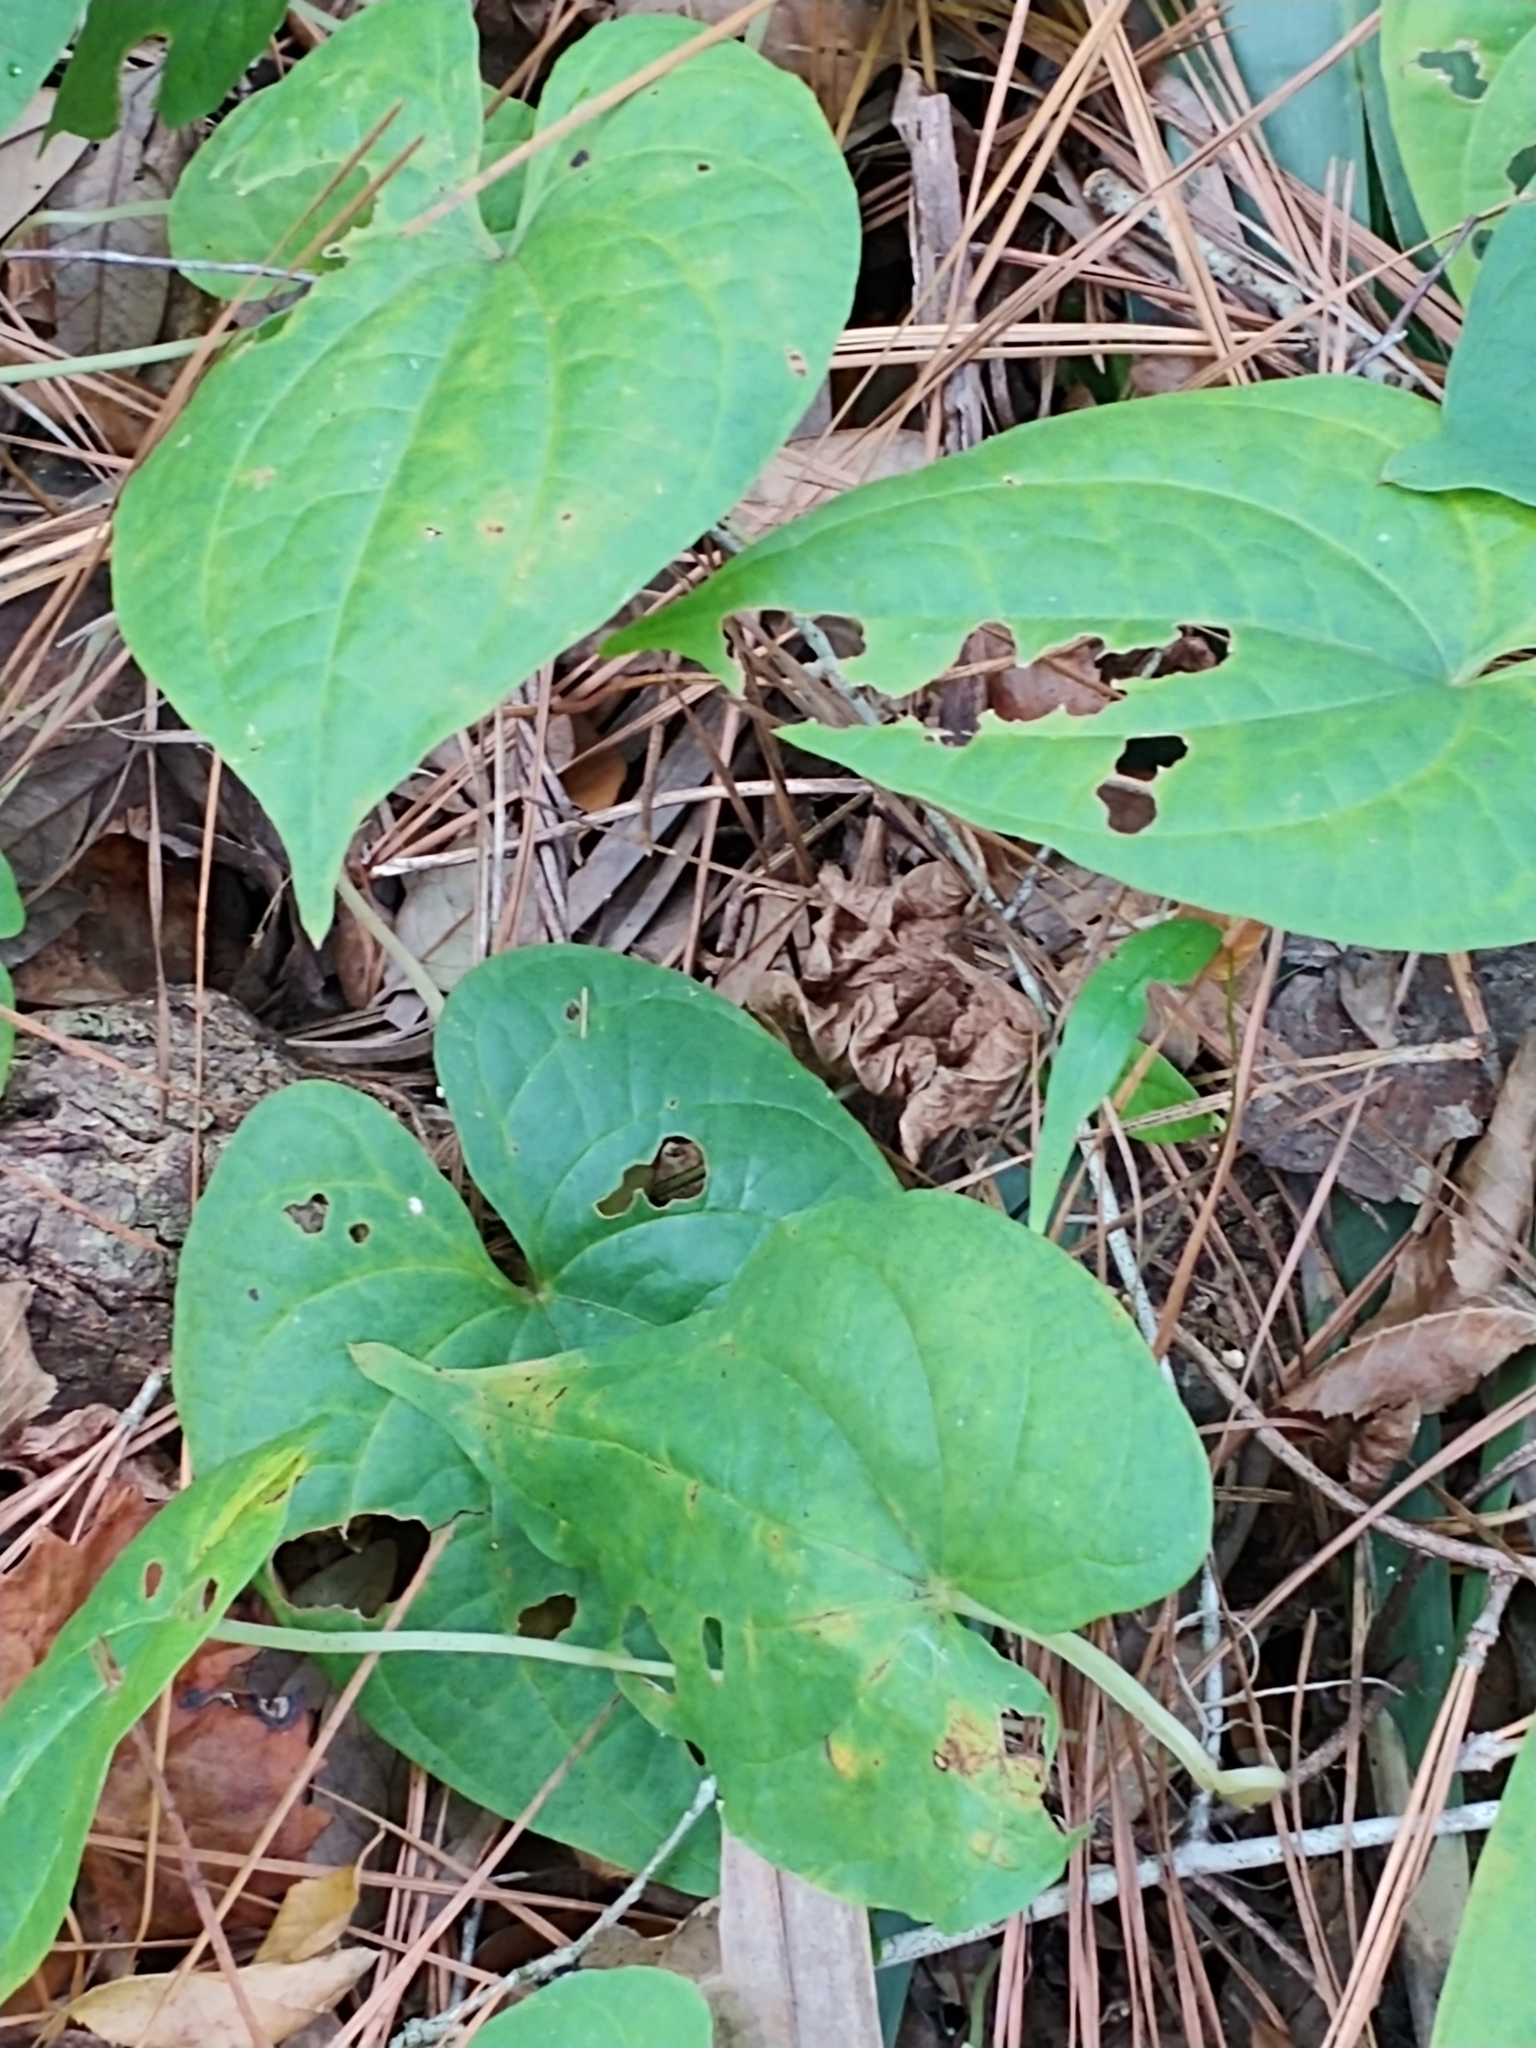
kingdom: Plantae
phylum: Tracheophyta
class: Liliopsida
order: Dioscoreales
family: Dioscoreaceae
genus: Dioscorea
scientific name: Dioscorea bulbifera
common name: Air yam
